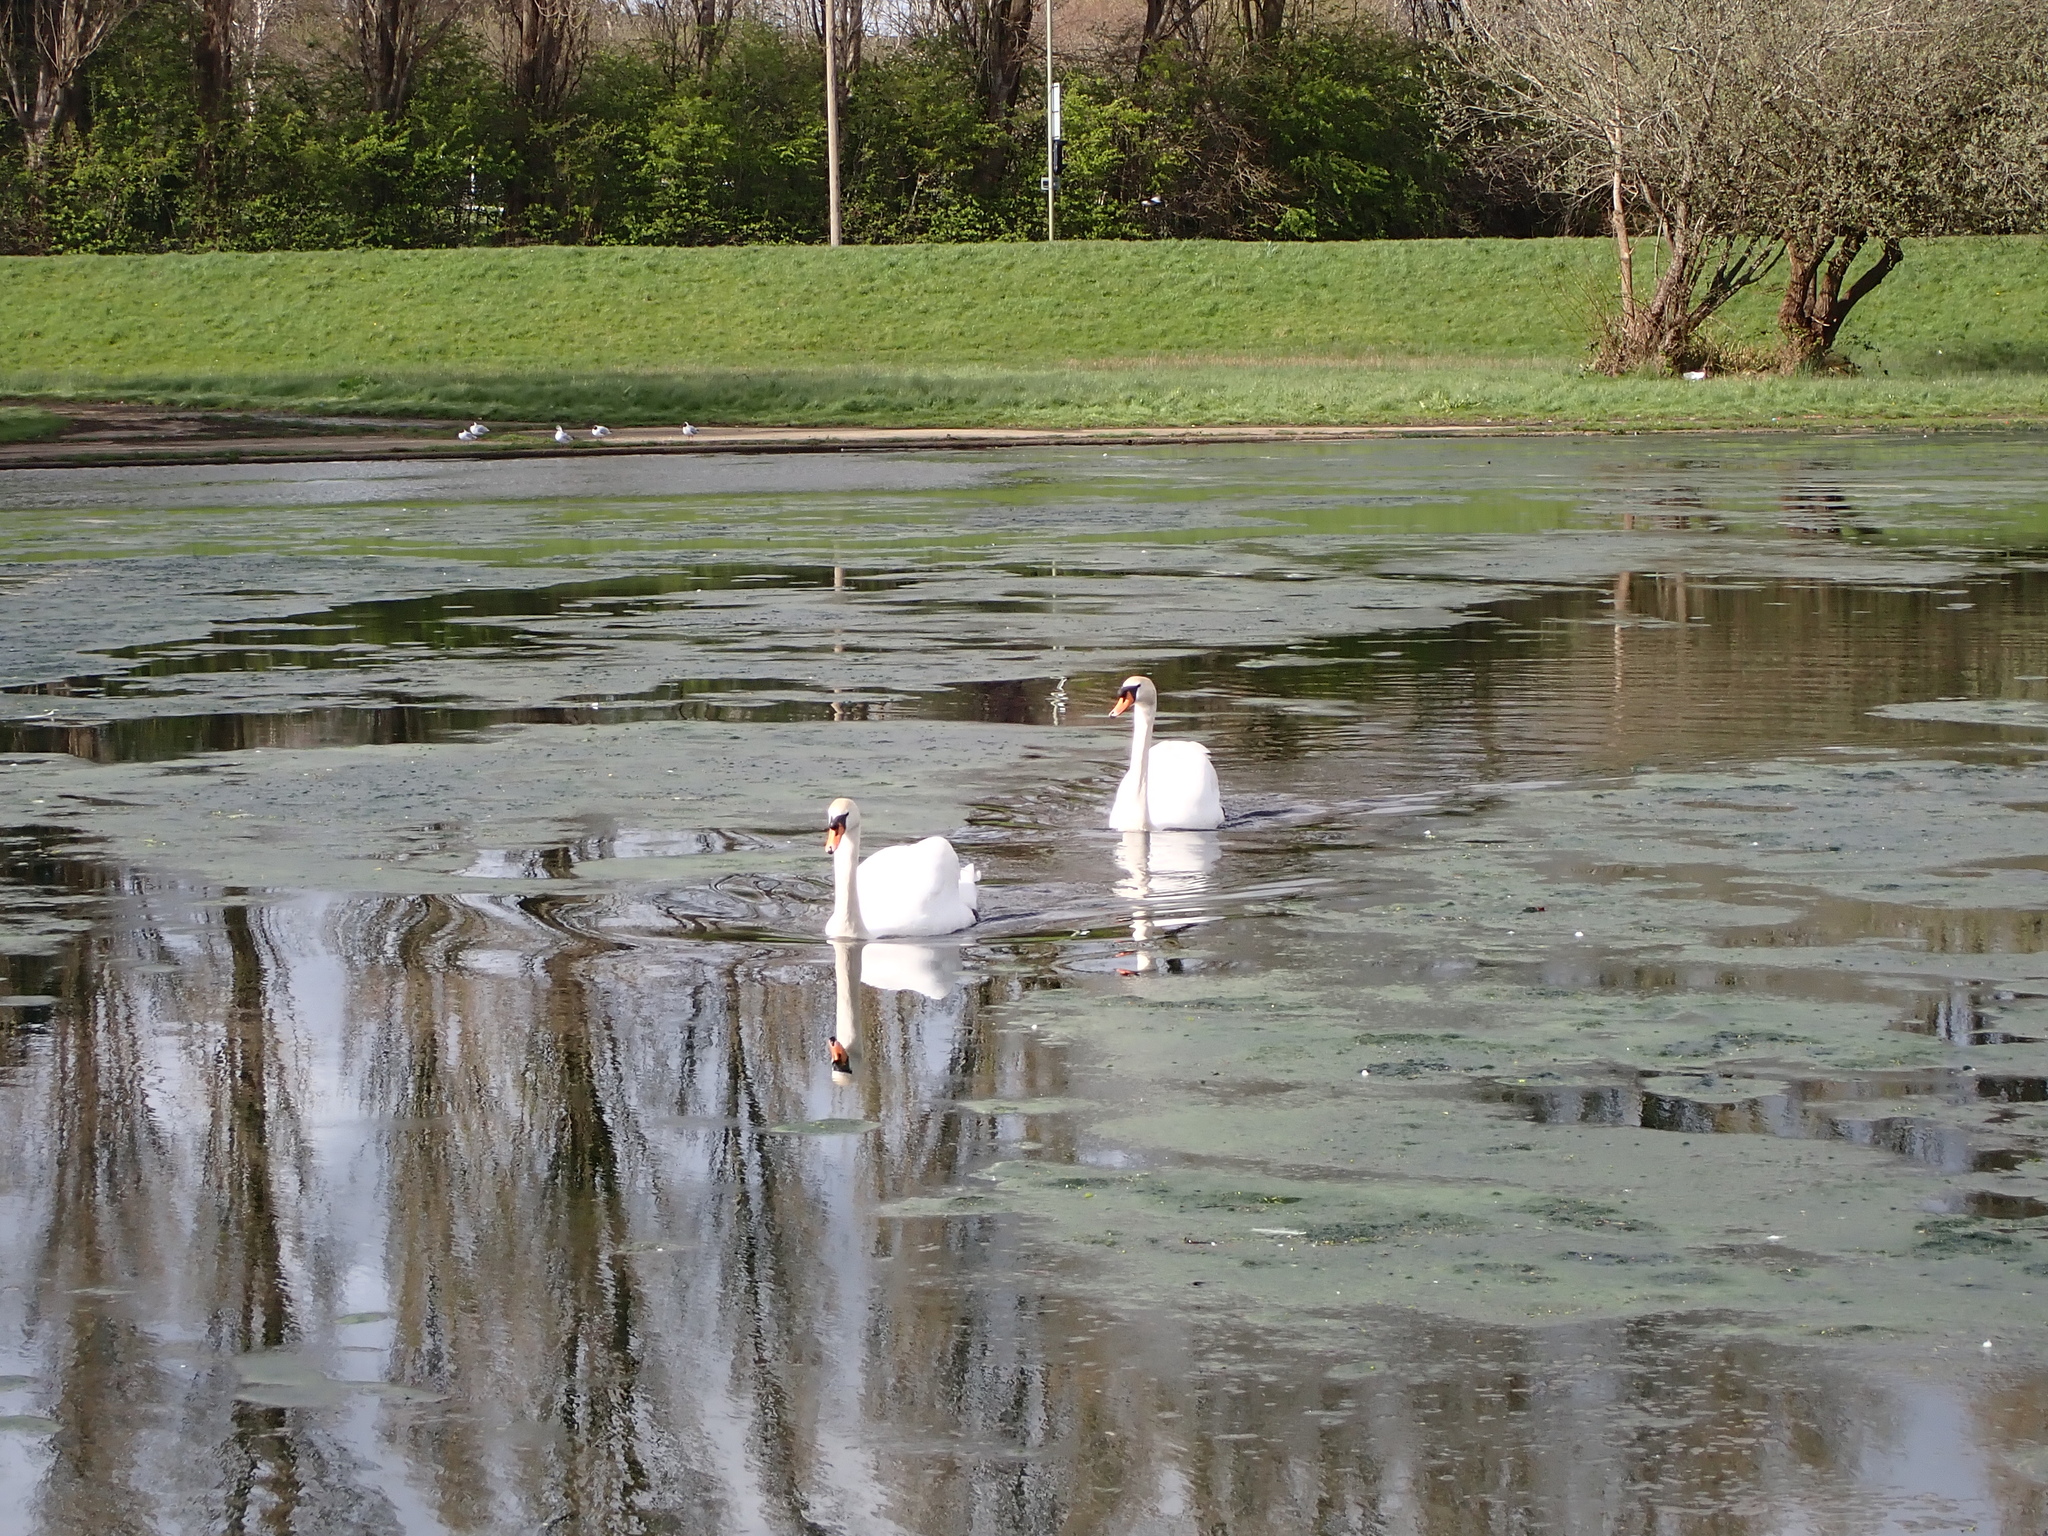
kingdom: Animalia
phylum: Chordata
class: Aves
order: Anseriformes
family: Anatidae
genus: Cygnus
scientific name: Cygnus olor
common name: Mute swan
